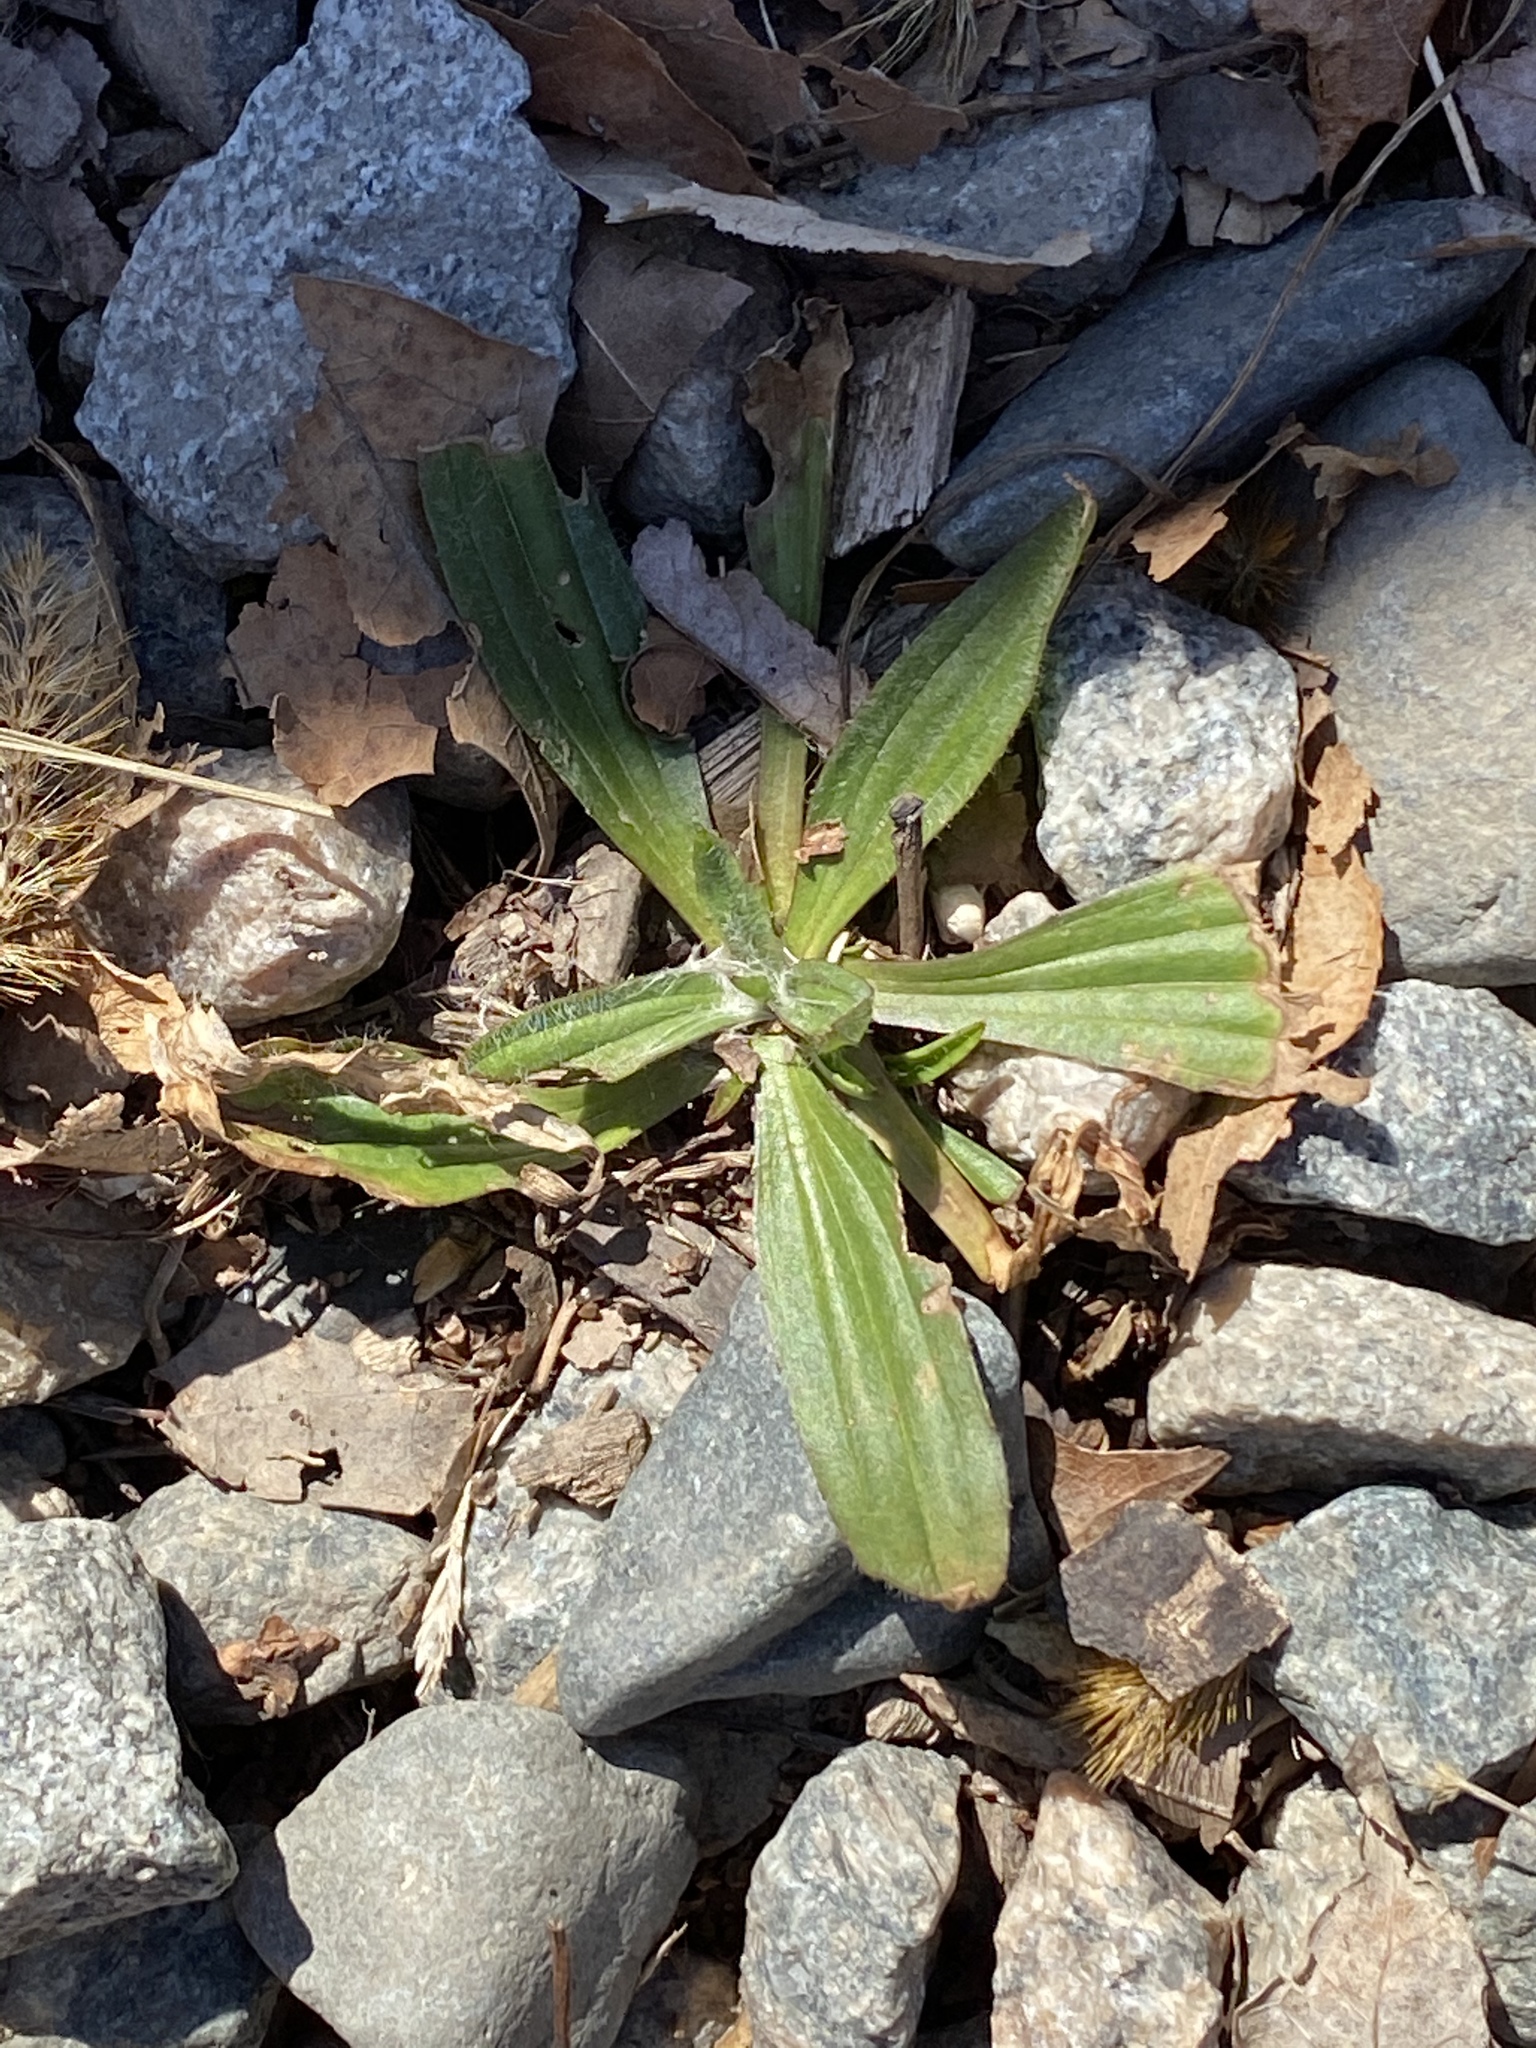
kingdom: Plantae
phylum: Tracheophyta
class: Magnoliopsida
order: Lamiales
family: Plantaginaceae
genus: Plantago
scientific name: Plantago lanceolata
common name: Ribwort plantain
